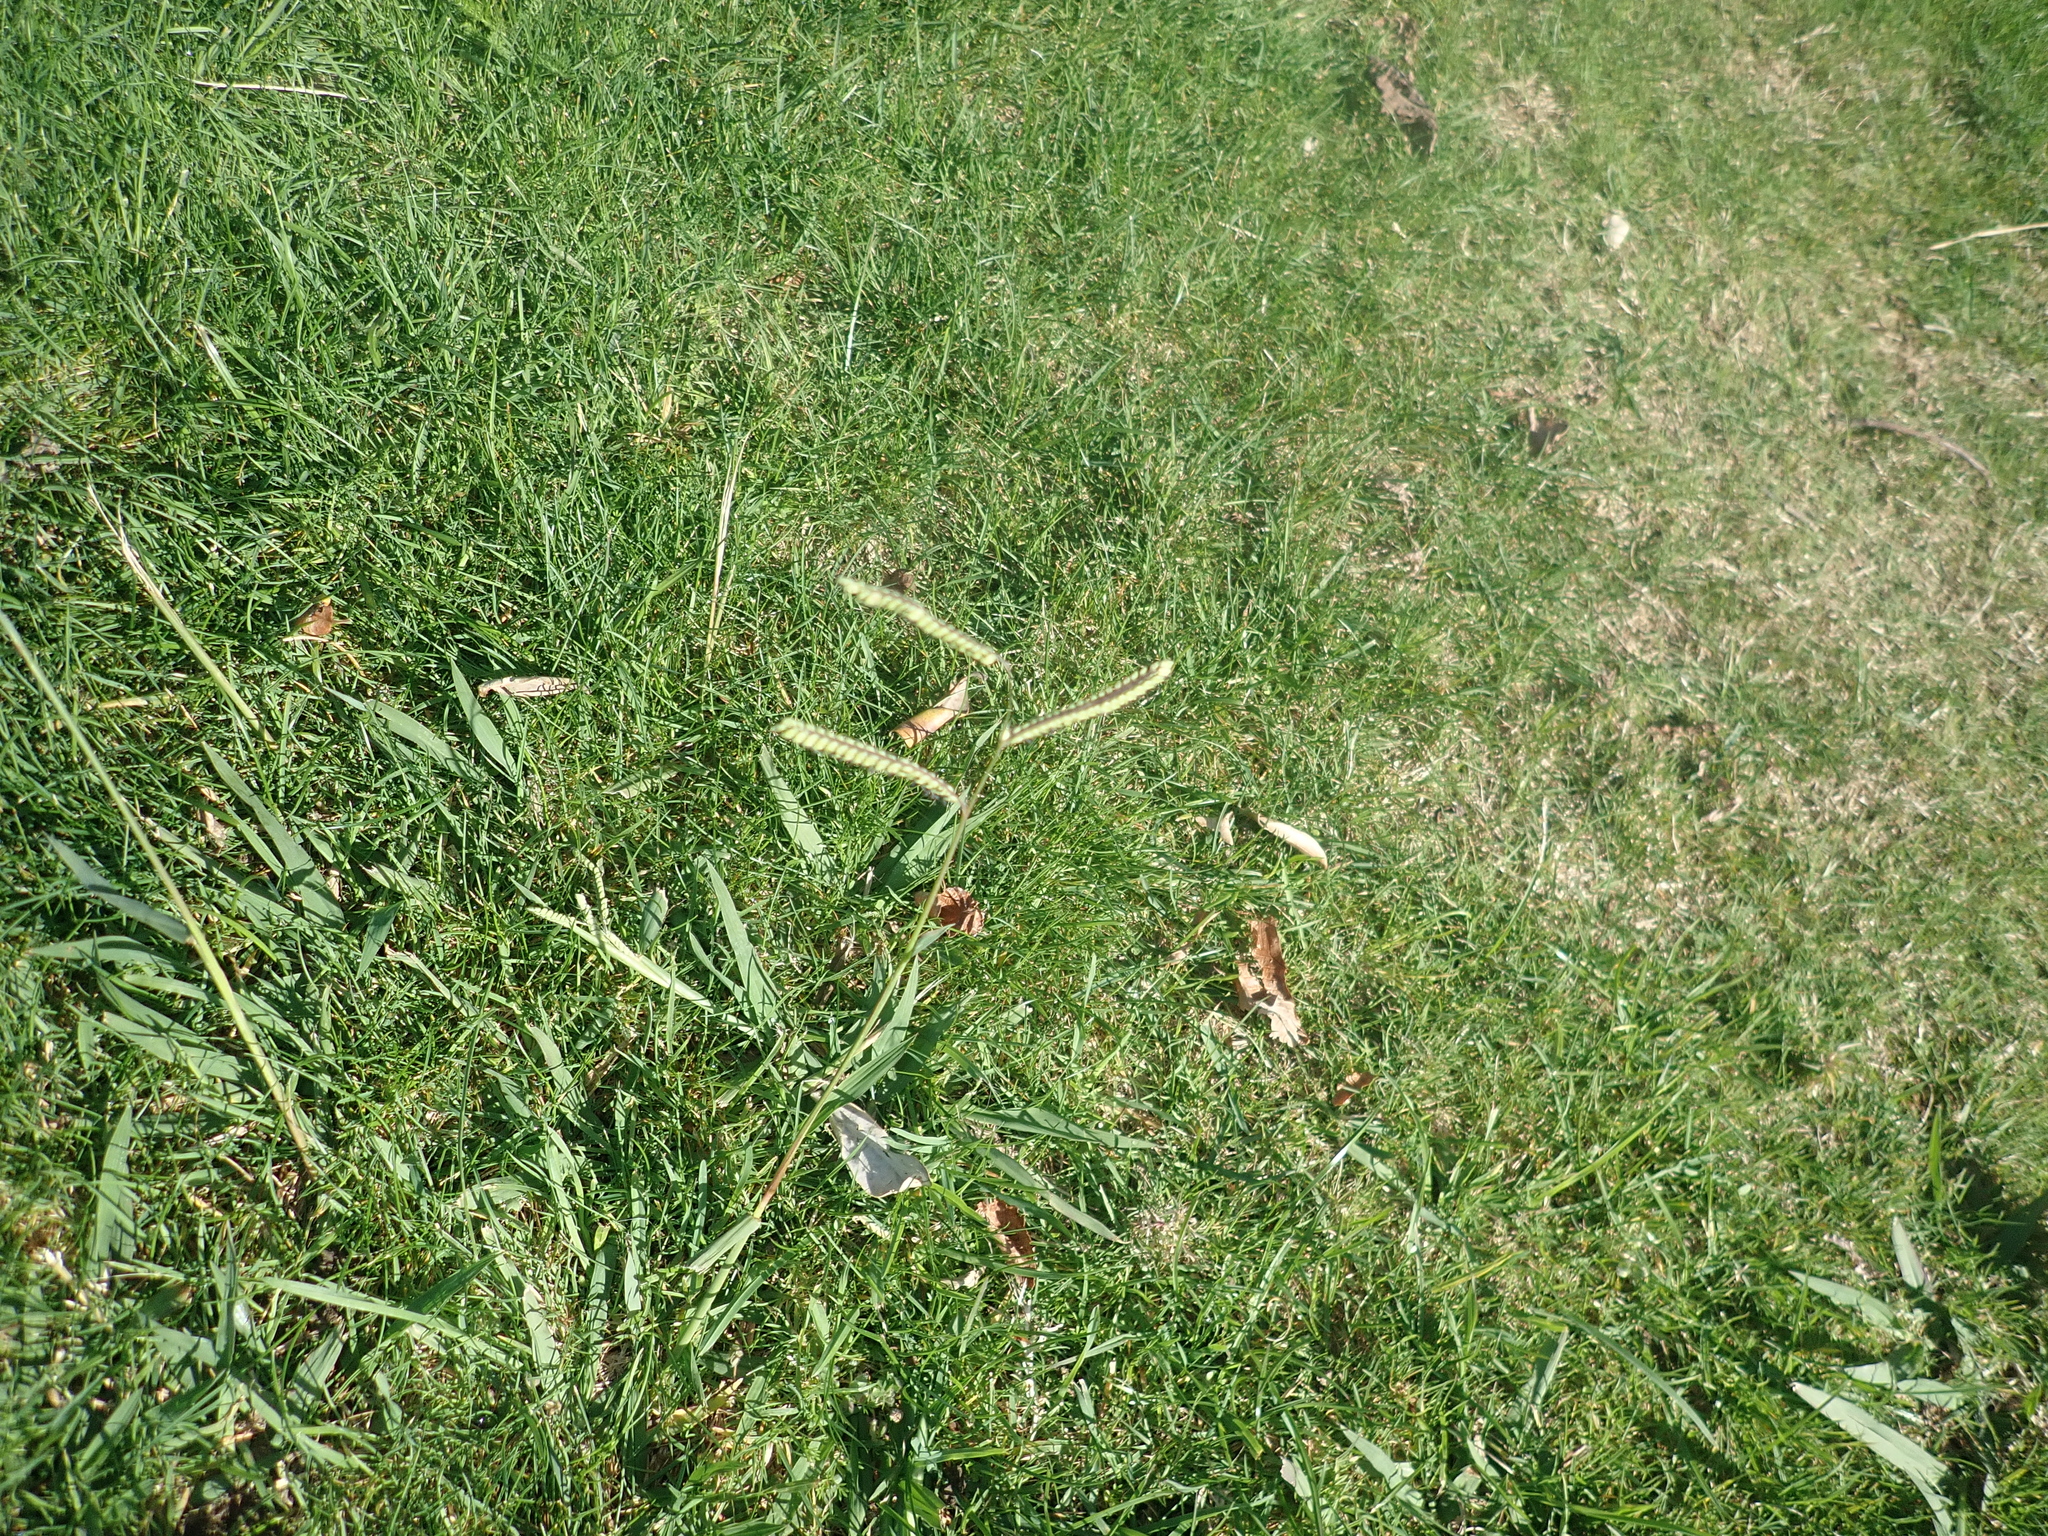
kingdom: Plantae
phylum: Tracheophyta
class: Liliopsida
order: Poales
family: Poaceae
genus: Paspalum
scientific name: Paspalum dilatatum
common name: Dallisgrass
